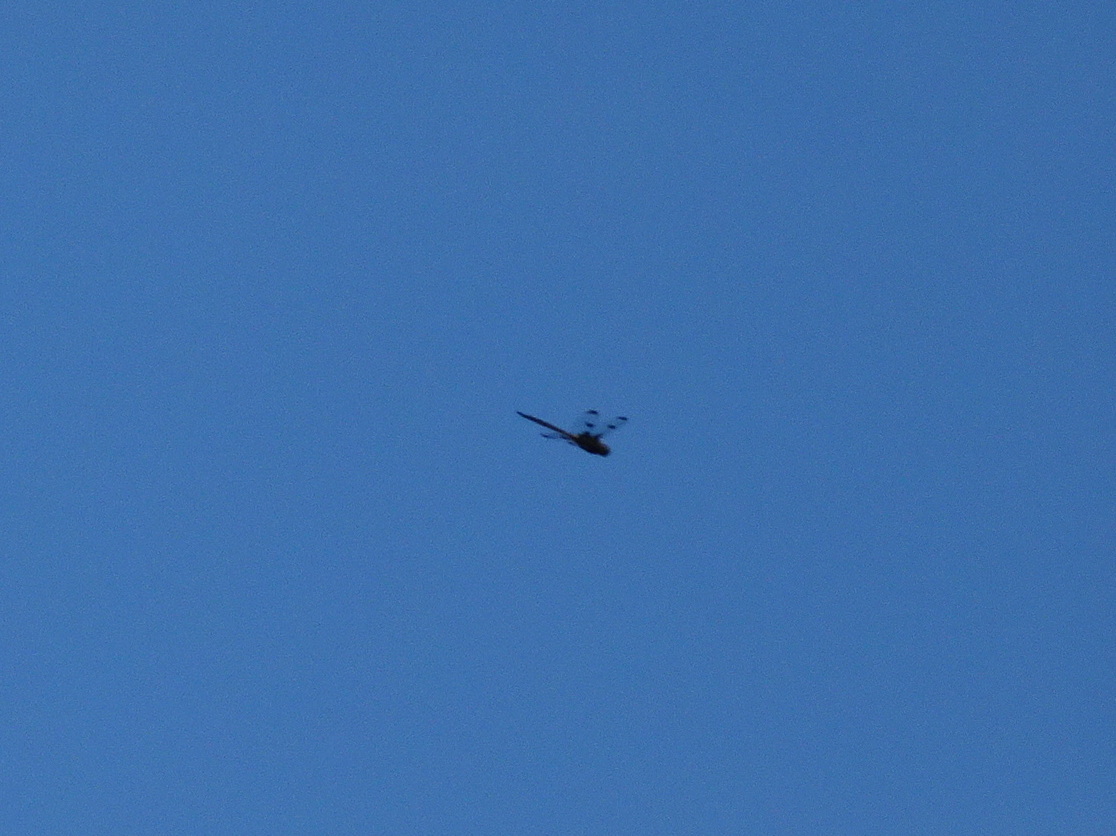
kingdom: Animalia
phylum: Arthropoda
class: Insecta
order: Odonata
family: Corduliidae
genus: Epitheca
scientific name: Epitheca princeps
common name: Prince baskettail
